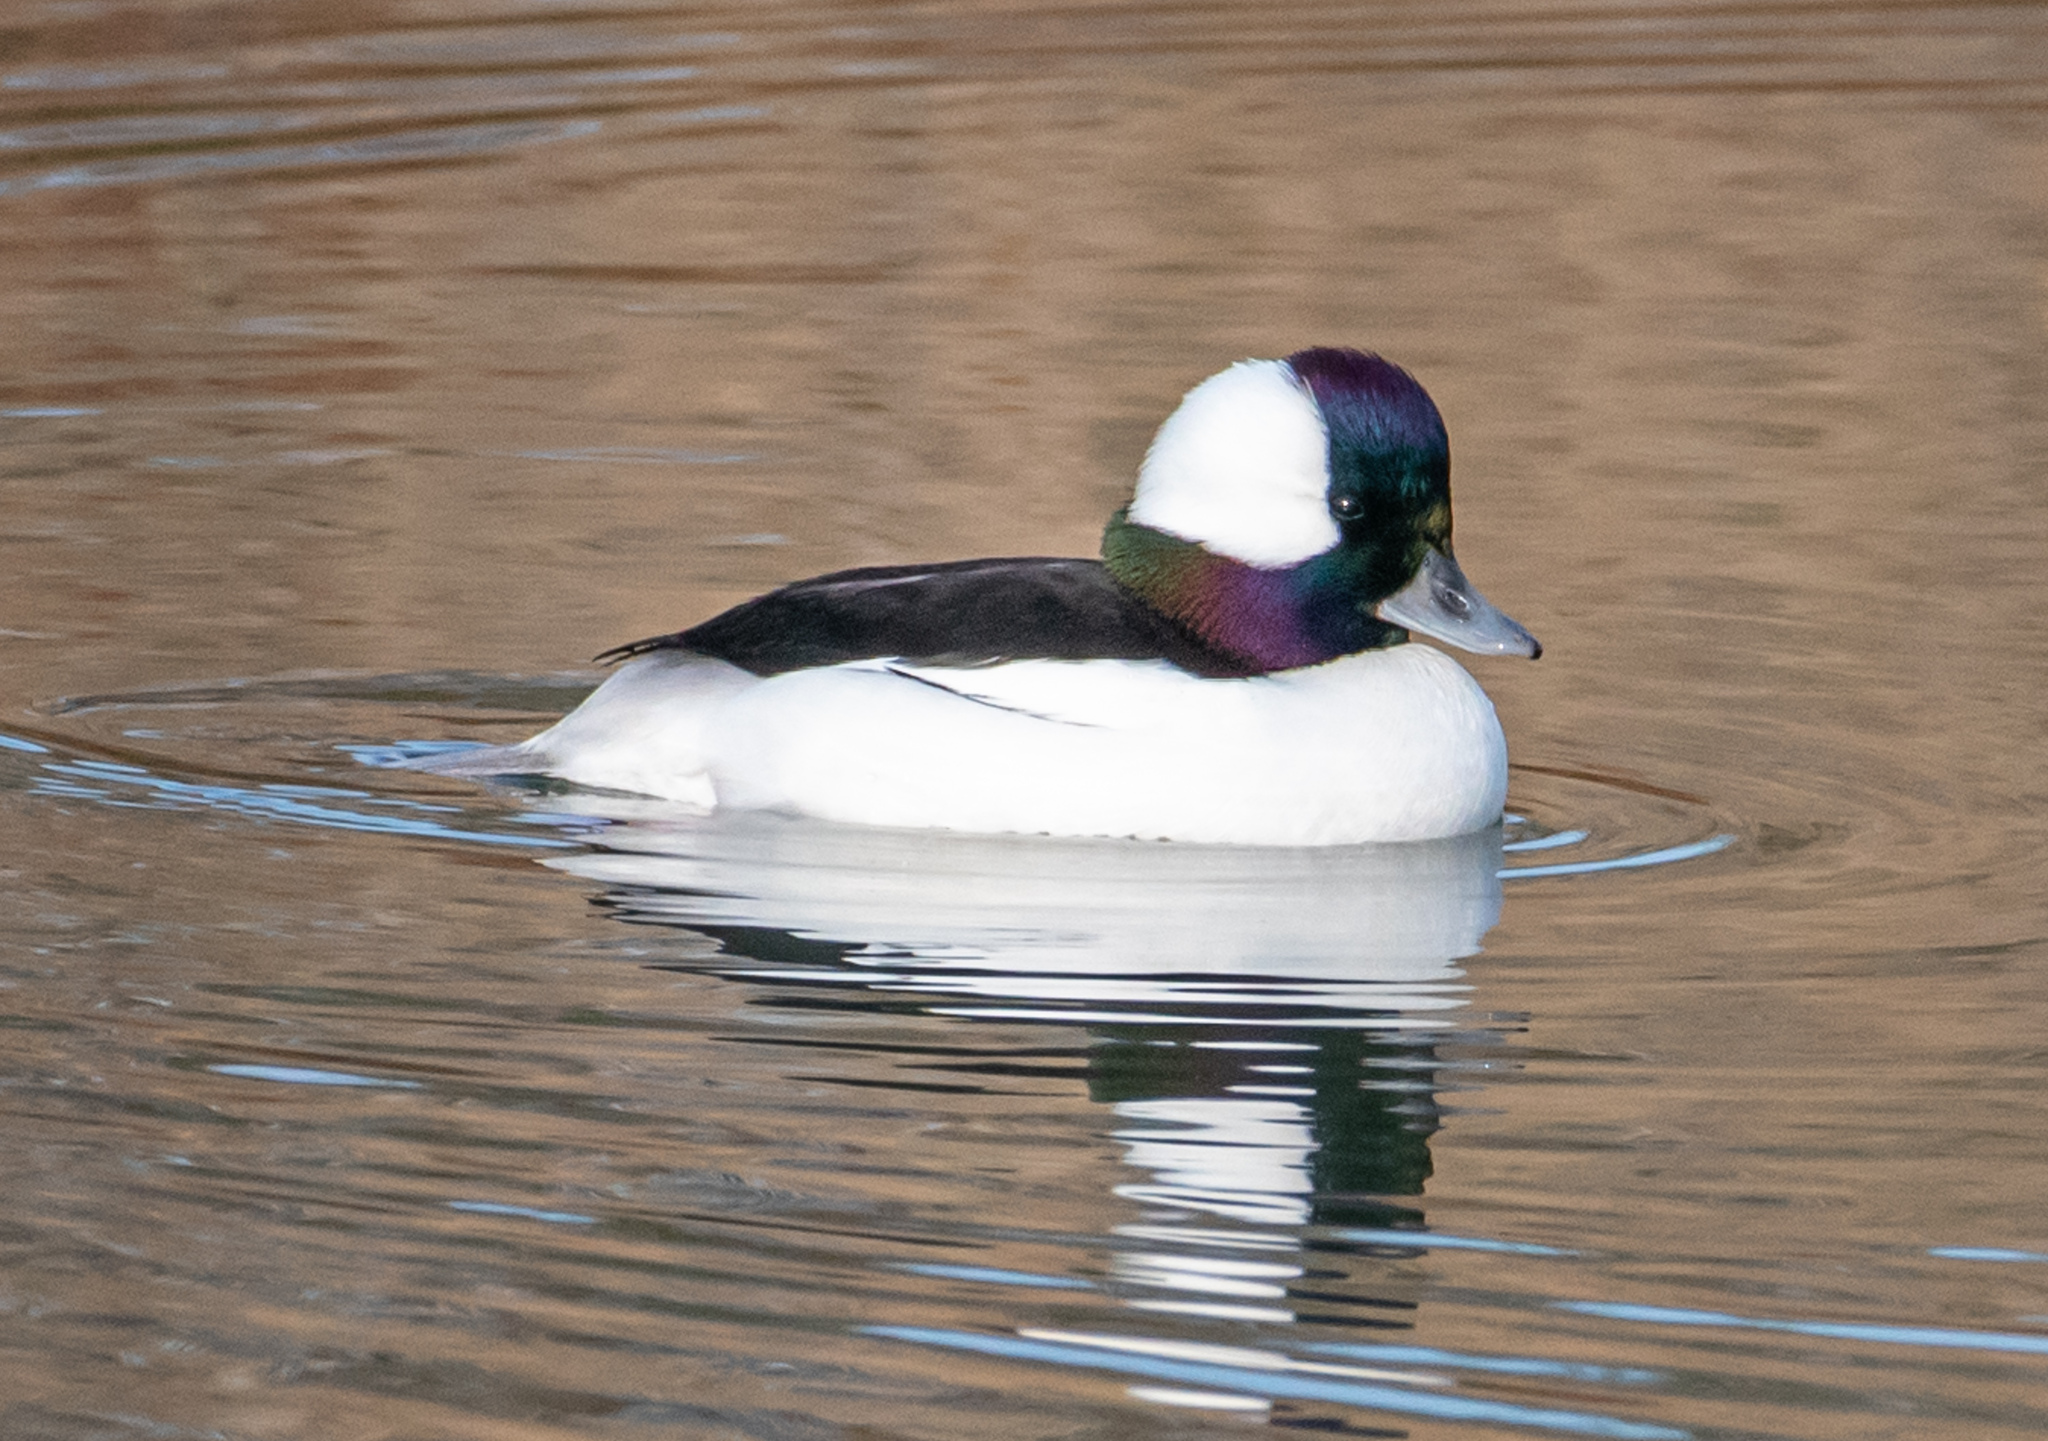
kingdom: Animalia
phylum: Chordata
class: Aves
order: Anseriformes
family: Anatidae
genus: Bucephala
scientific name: Bucephala albeola
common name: Bufflehead
